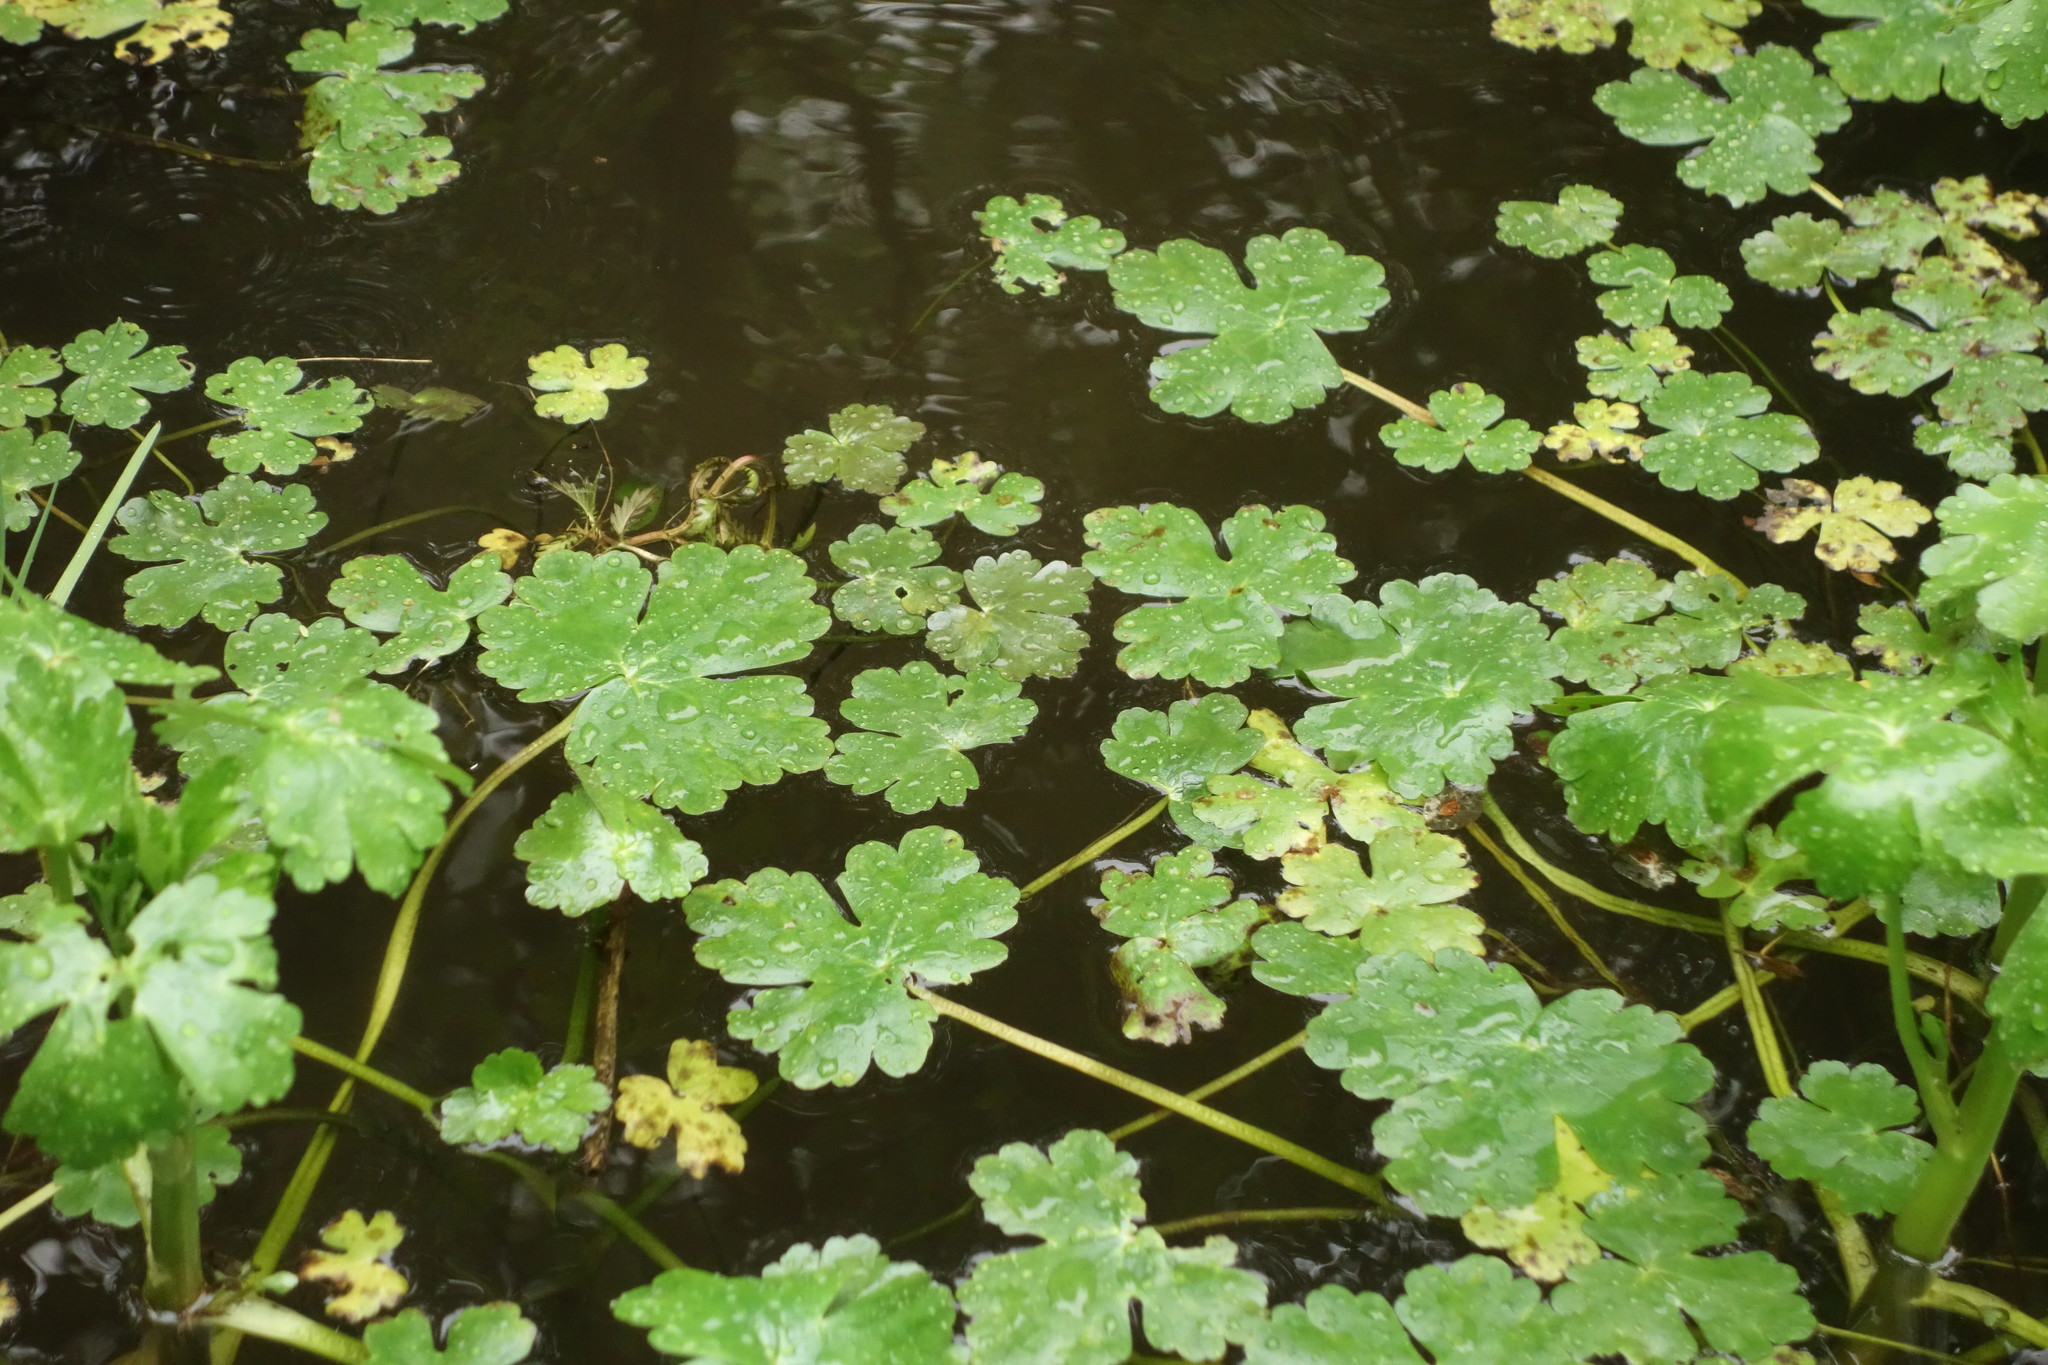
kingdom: Plantae
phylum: Tracheophyta
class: Magnoliopsida
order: Ranunculales
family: Ranunculaceae
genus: Ranunculus
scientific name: Ranunculus sceleratus
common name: Celery-leaved buttercup
